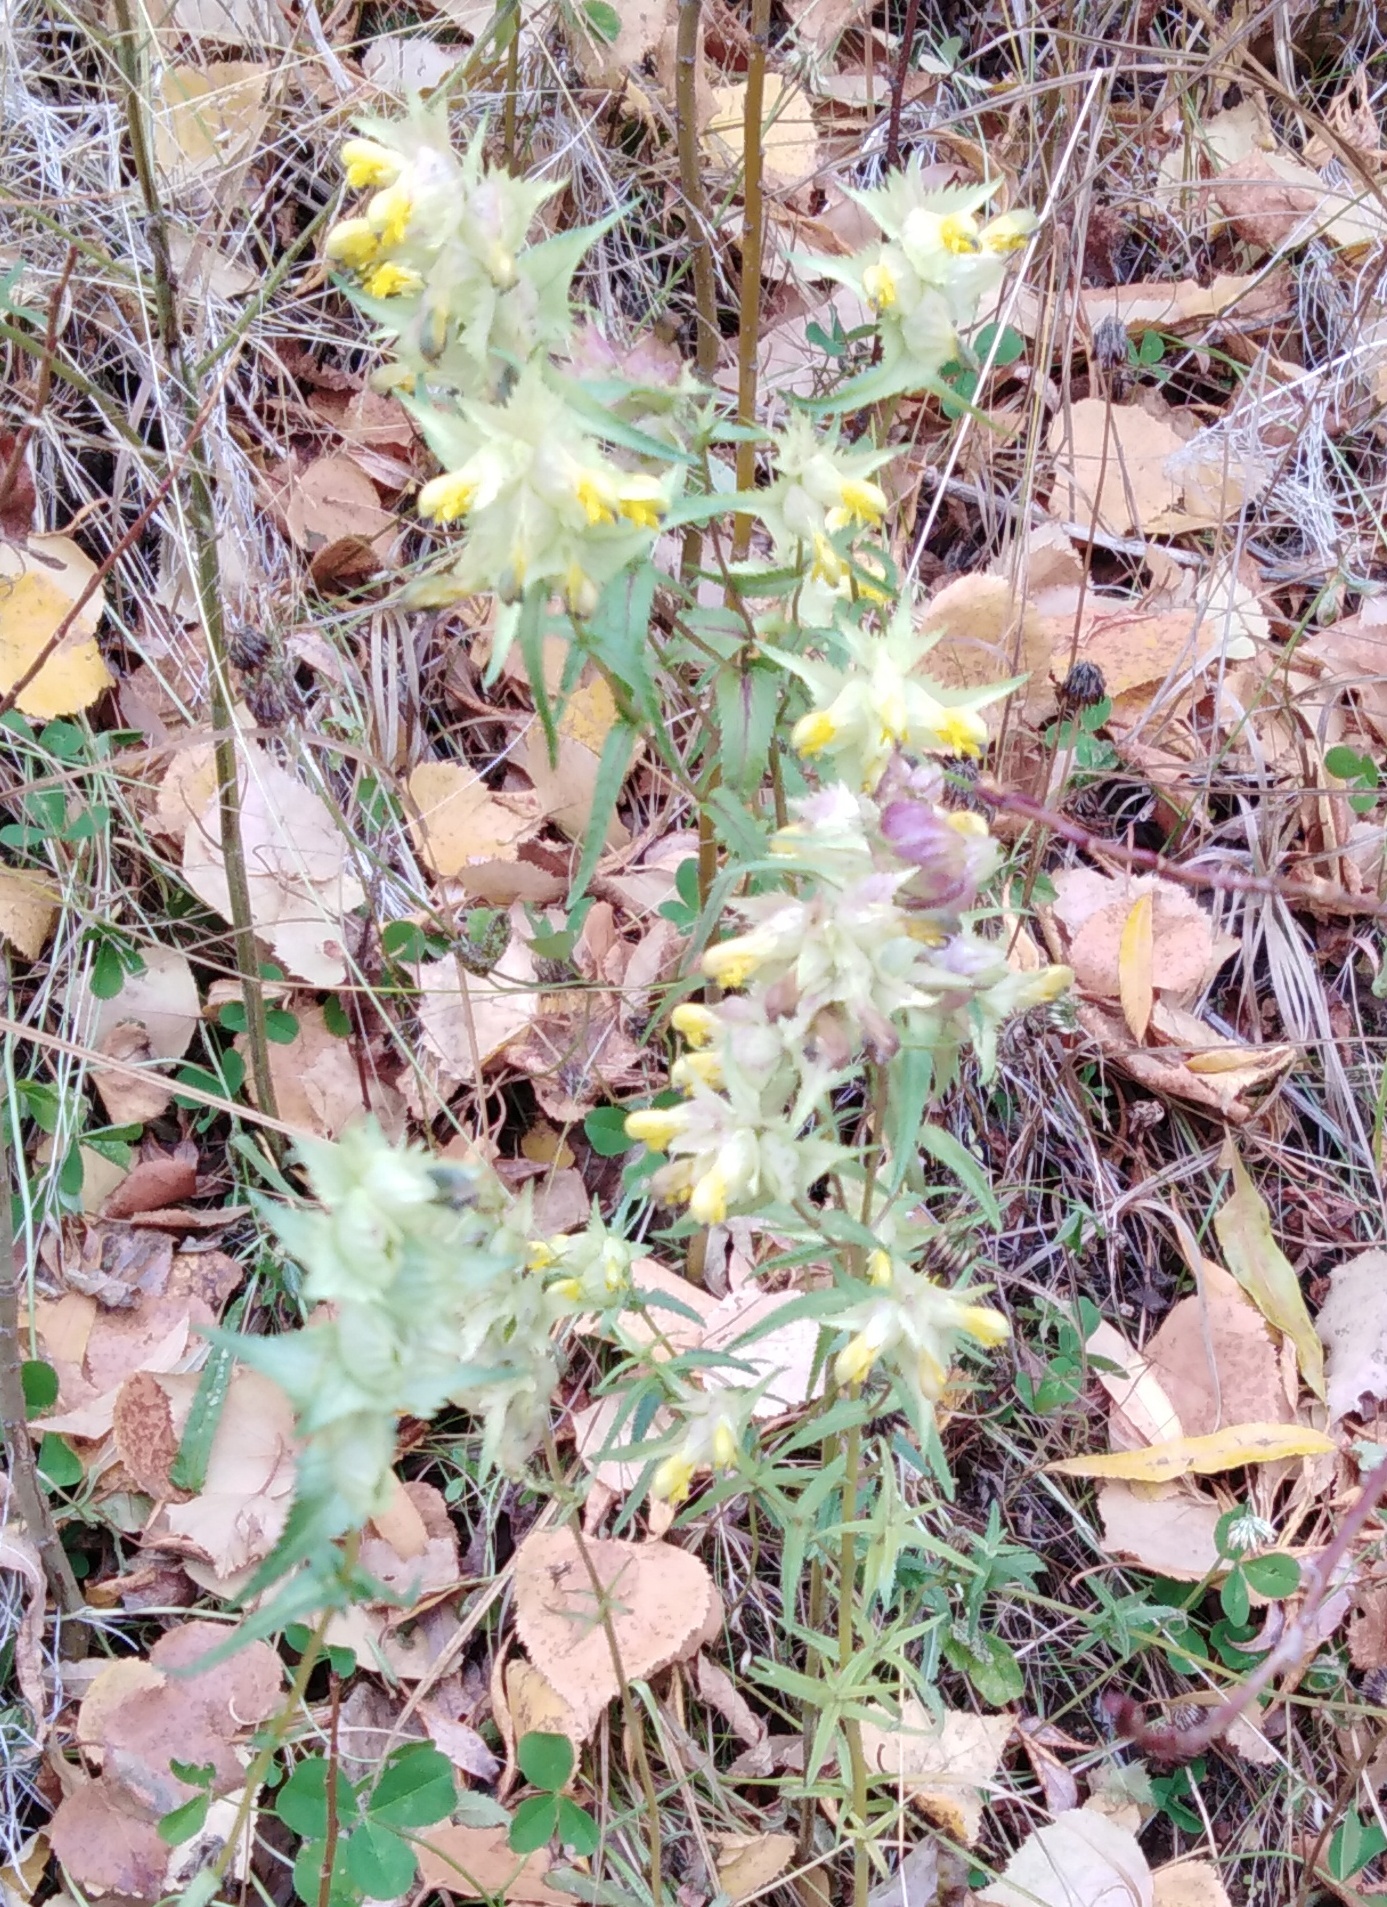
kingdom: Plantae
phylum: Tracheophyta
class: Magnoliopsida
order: Lamiales
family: Orobanchaceae
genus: Rhinanthus
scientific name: Rhinanthus minor
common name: Yellow-rattle
